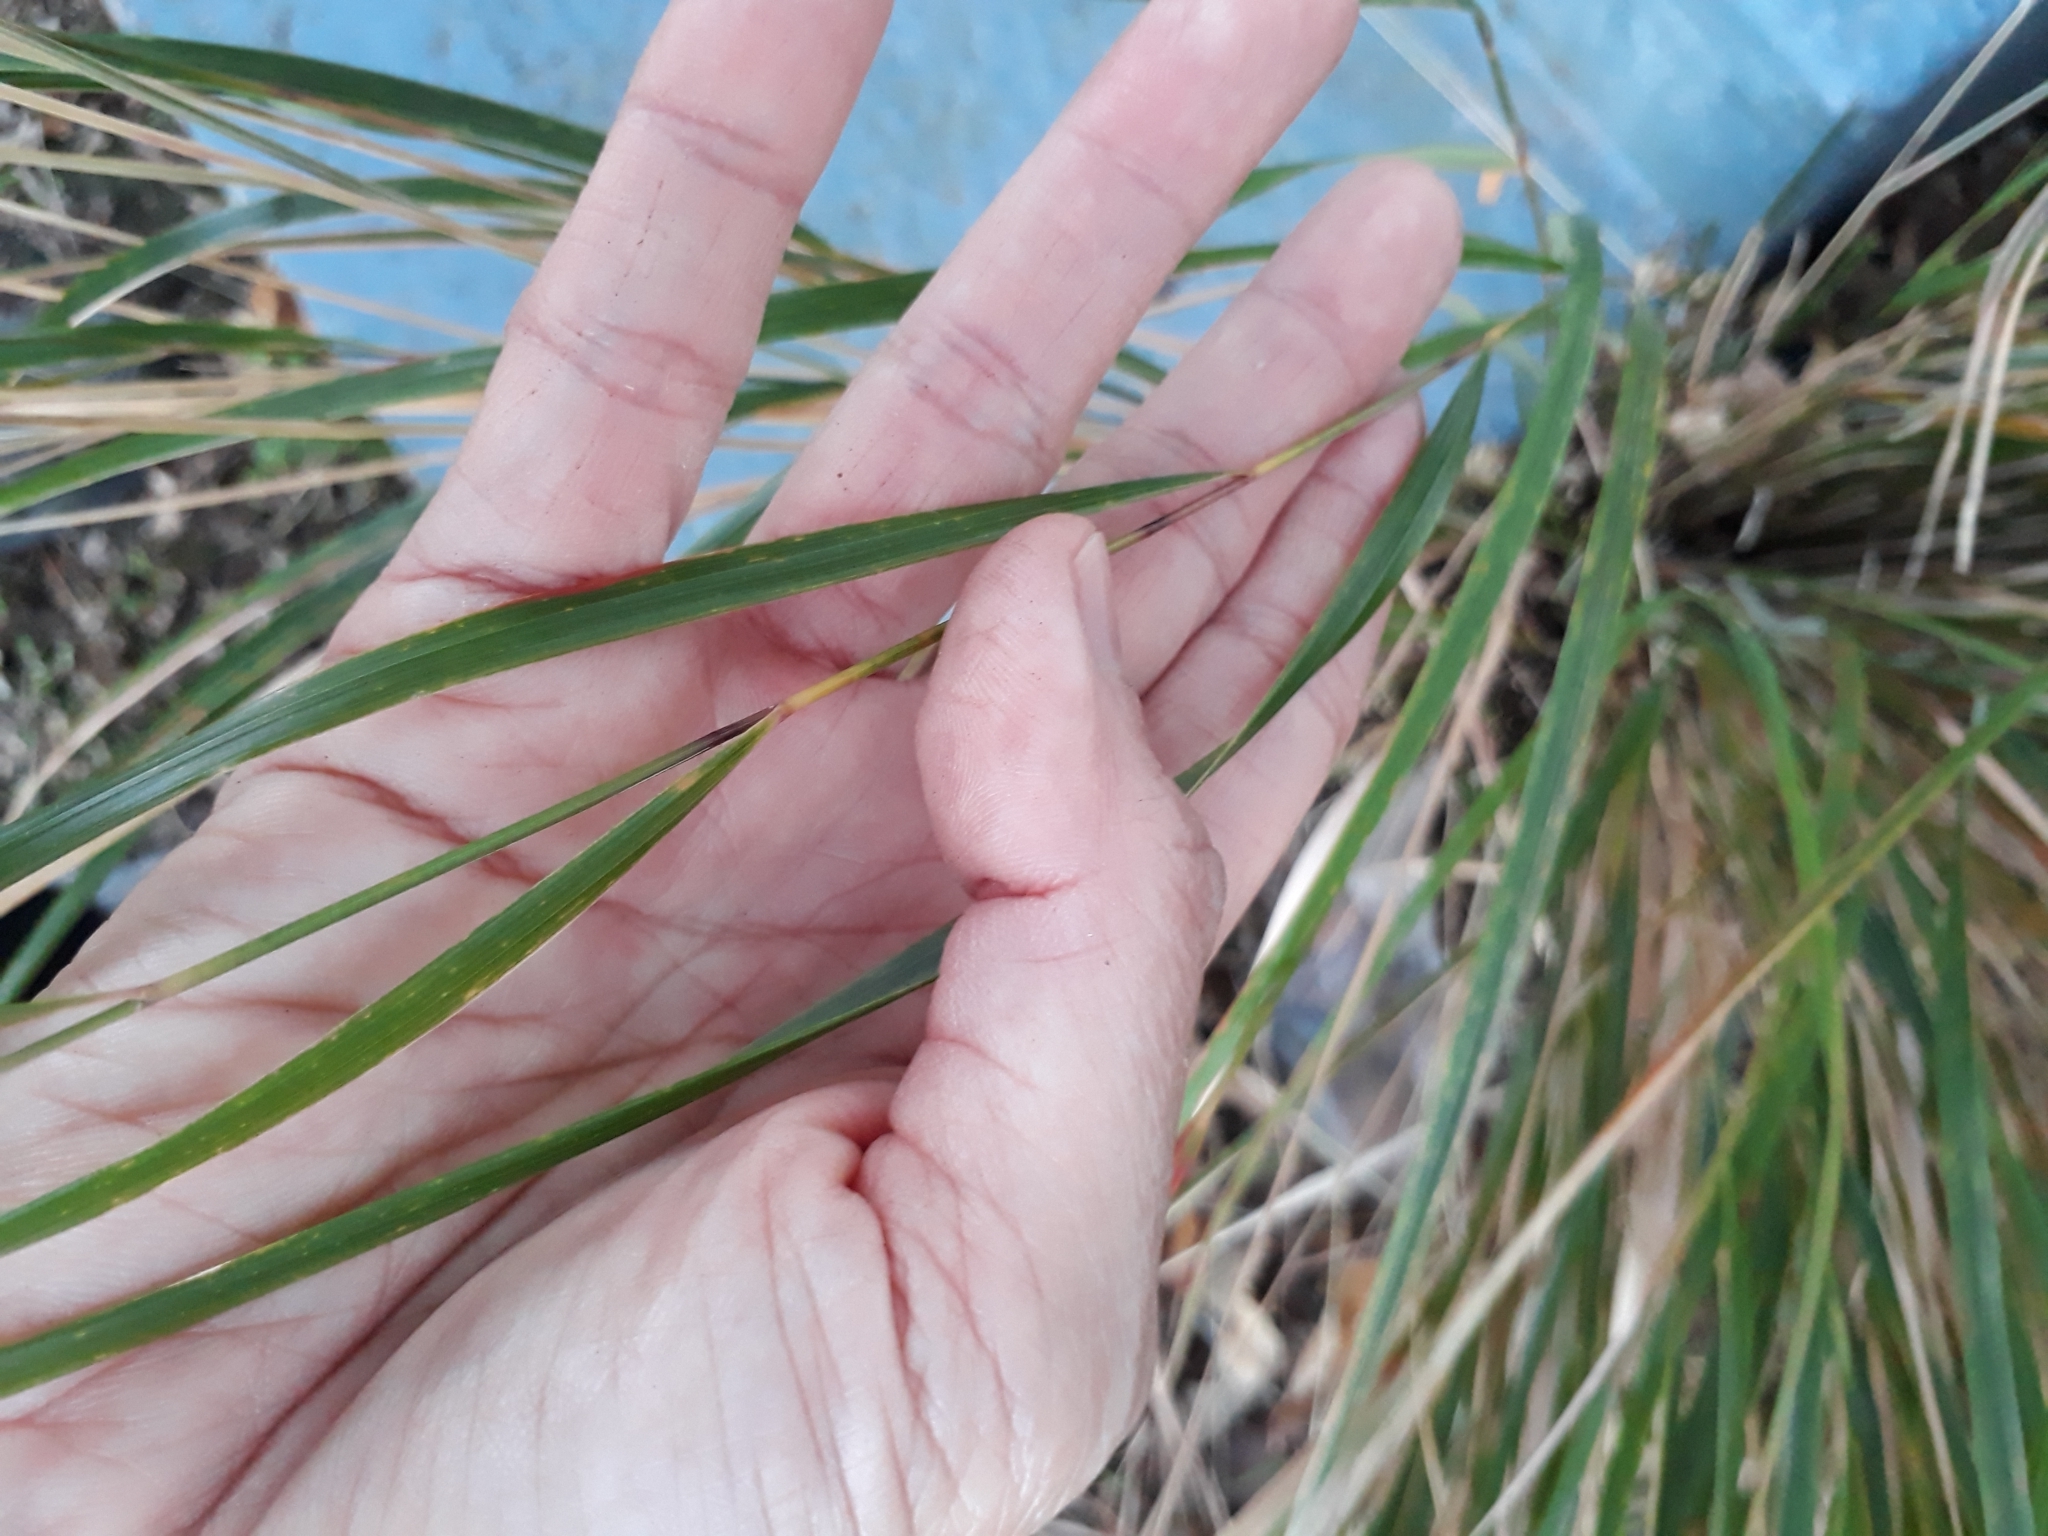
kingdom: Plantae
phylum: Tracheophyta
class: Liliopsida
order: Poales
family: Poaceae
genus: Anemanthele
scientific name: Anemanthele lessoniana
